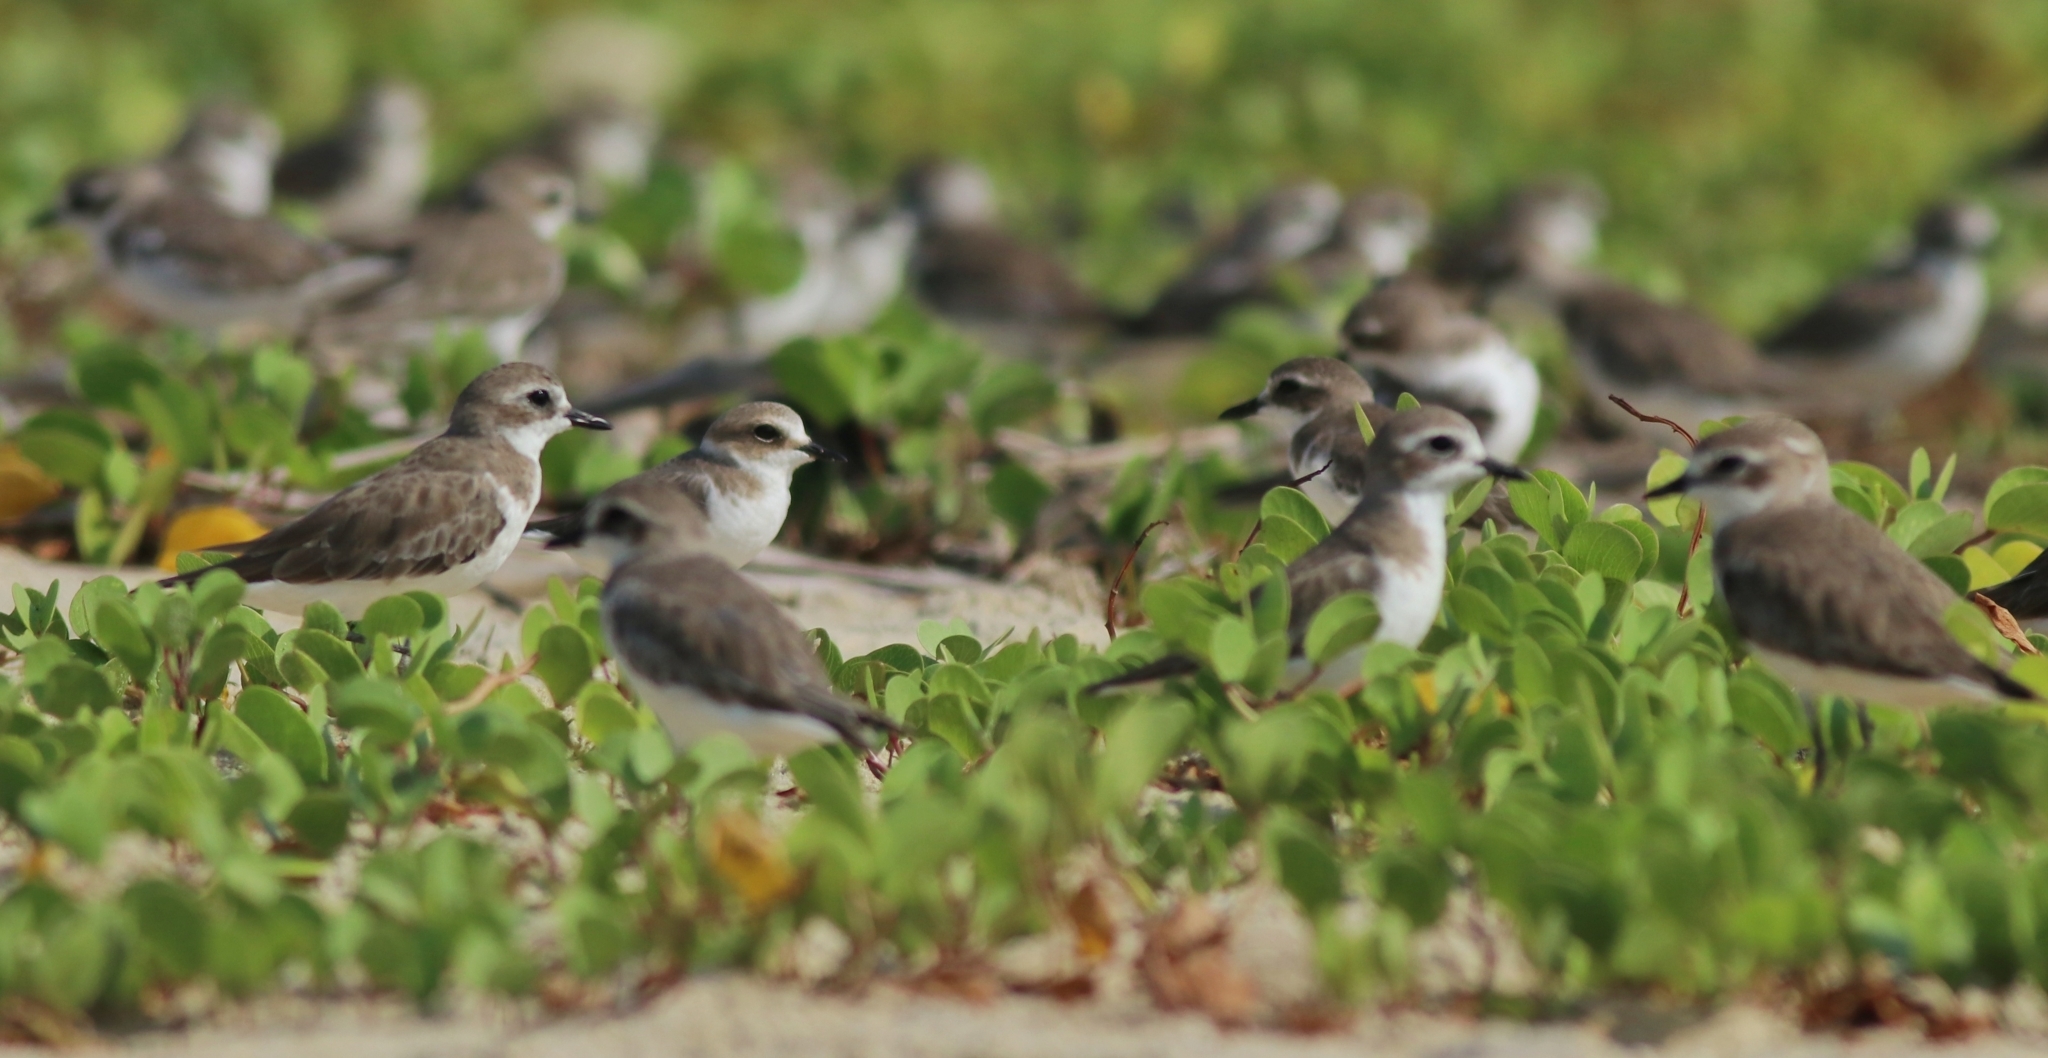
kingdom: Animalia
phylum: Chordata
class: Aves
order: Charadriiformes
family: Charadriidae
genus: Anarhynchus
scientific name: Anarhynchus
